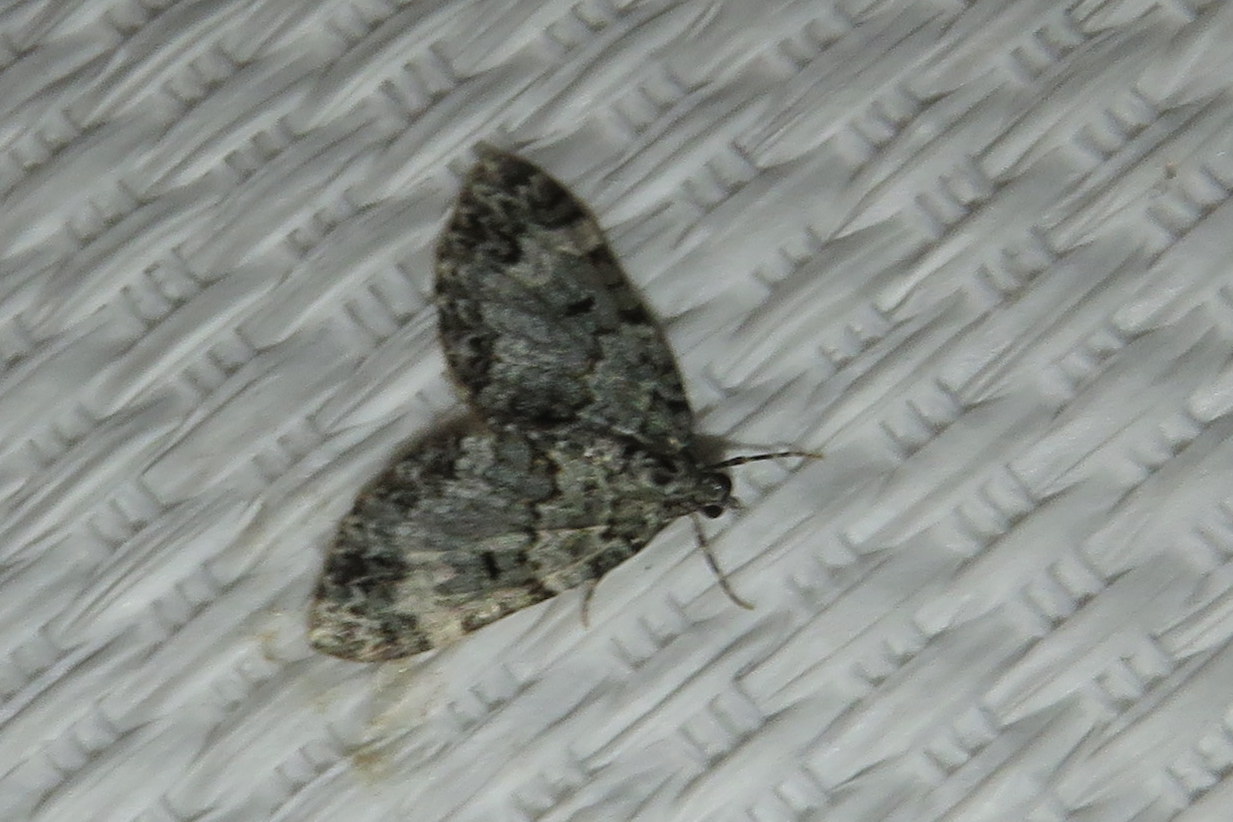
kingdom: Animalia
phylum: Arthropoda
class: Insecta
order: Lepidoptera
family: Geometridae
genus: Spargania
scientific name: Spargania magnoliata
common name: Double-banded carpet
